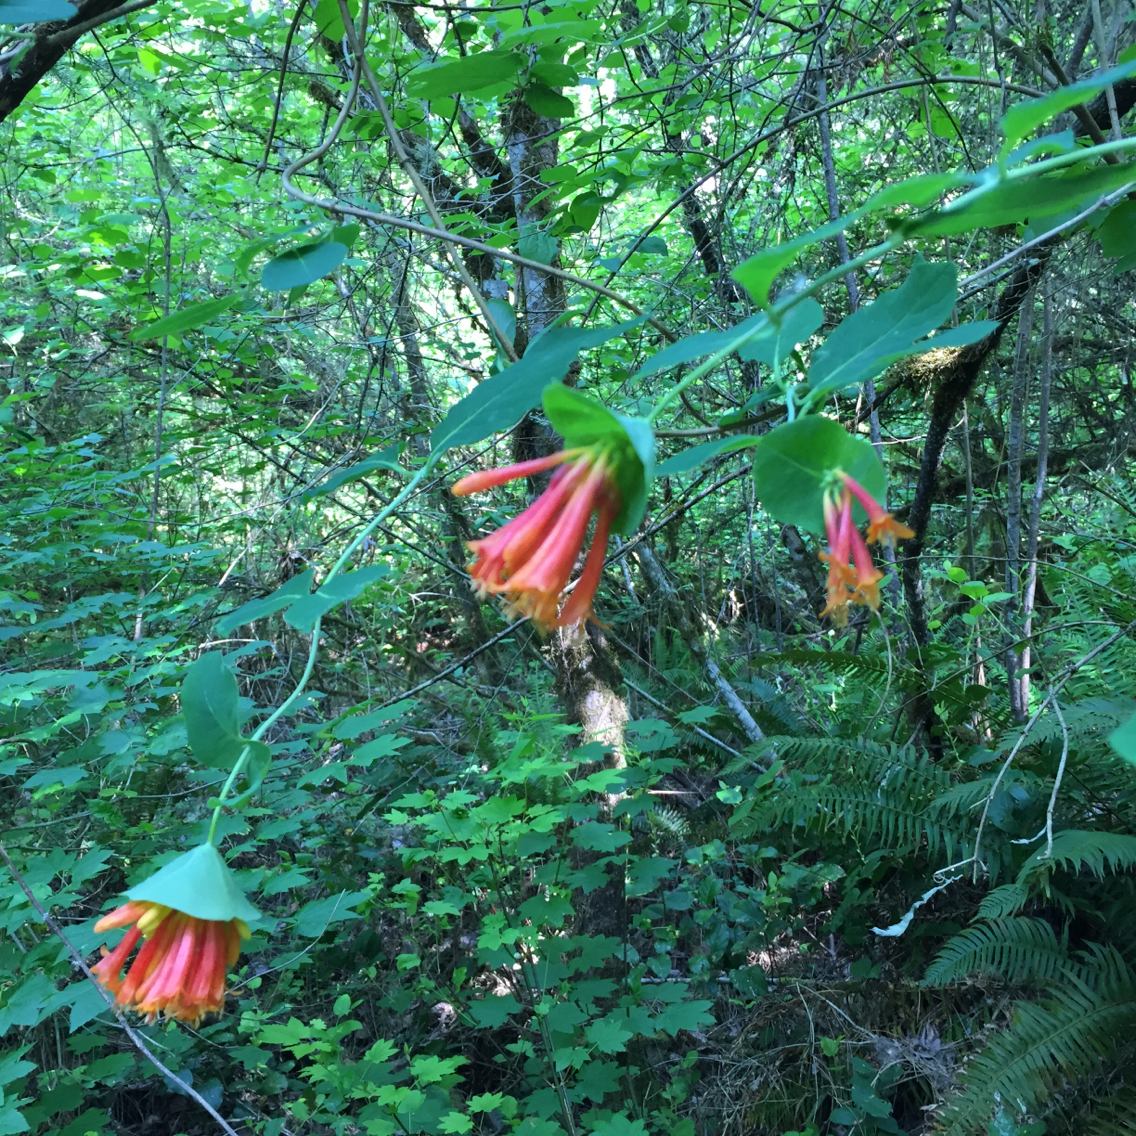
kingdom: Plantae
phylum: Tracheophyta
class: Magnoliopsida
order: Dipsacales
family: Caprifoliaceae
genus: Lonicera
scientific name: Lonicera ciliosa
